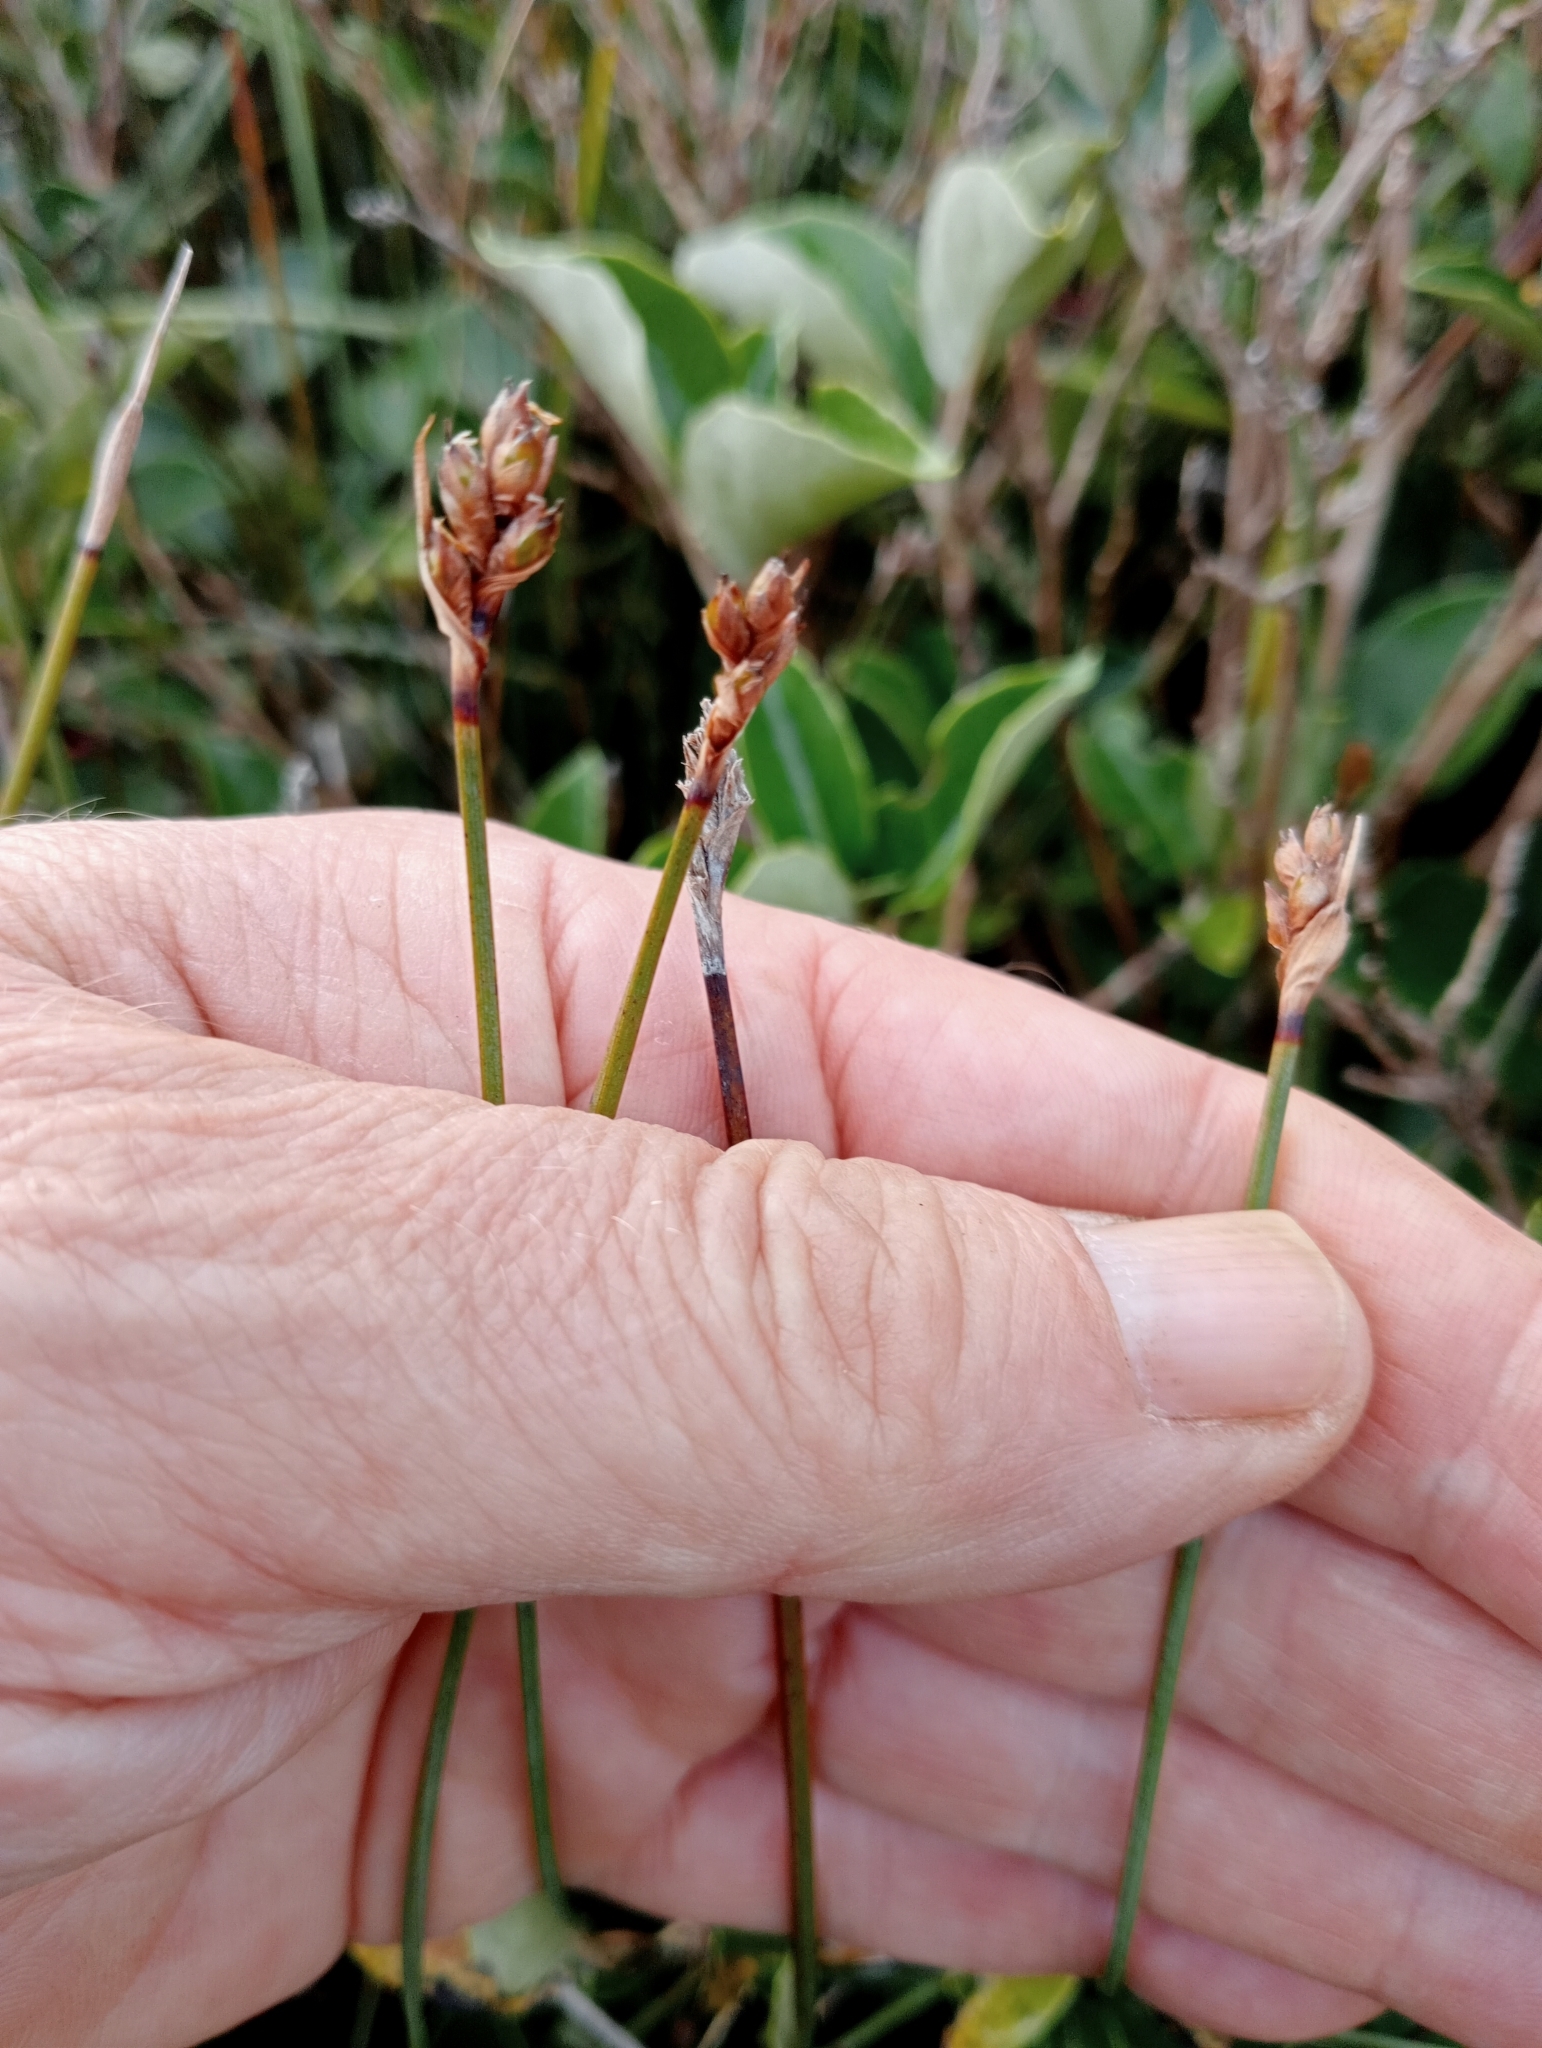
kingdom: Plantae
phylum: Tracheophyta
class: Liliopsida
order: Poales
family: Cyperaceae
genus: Lepidosperma
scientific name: Lepidosperma australe
